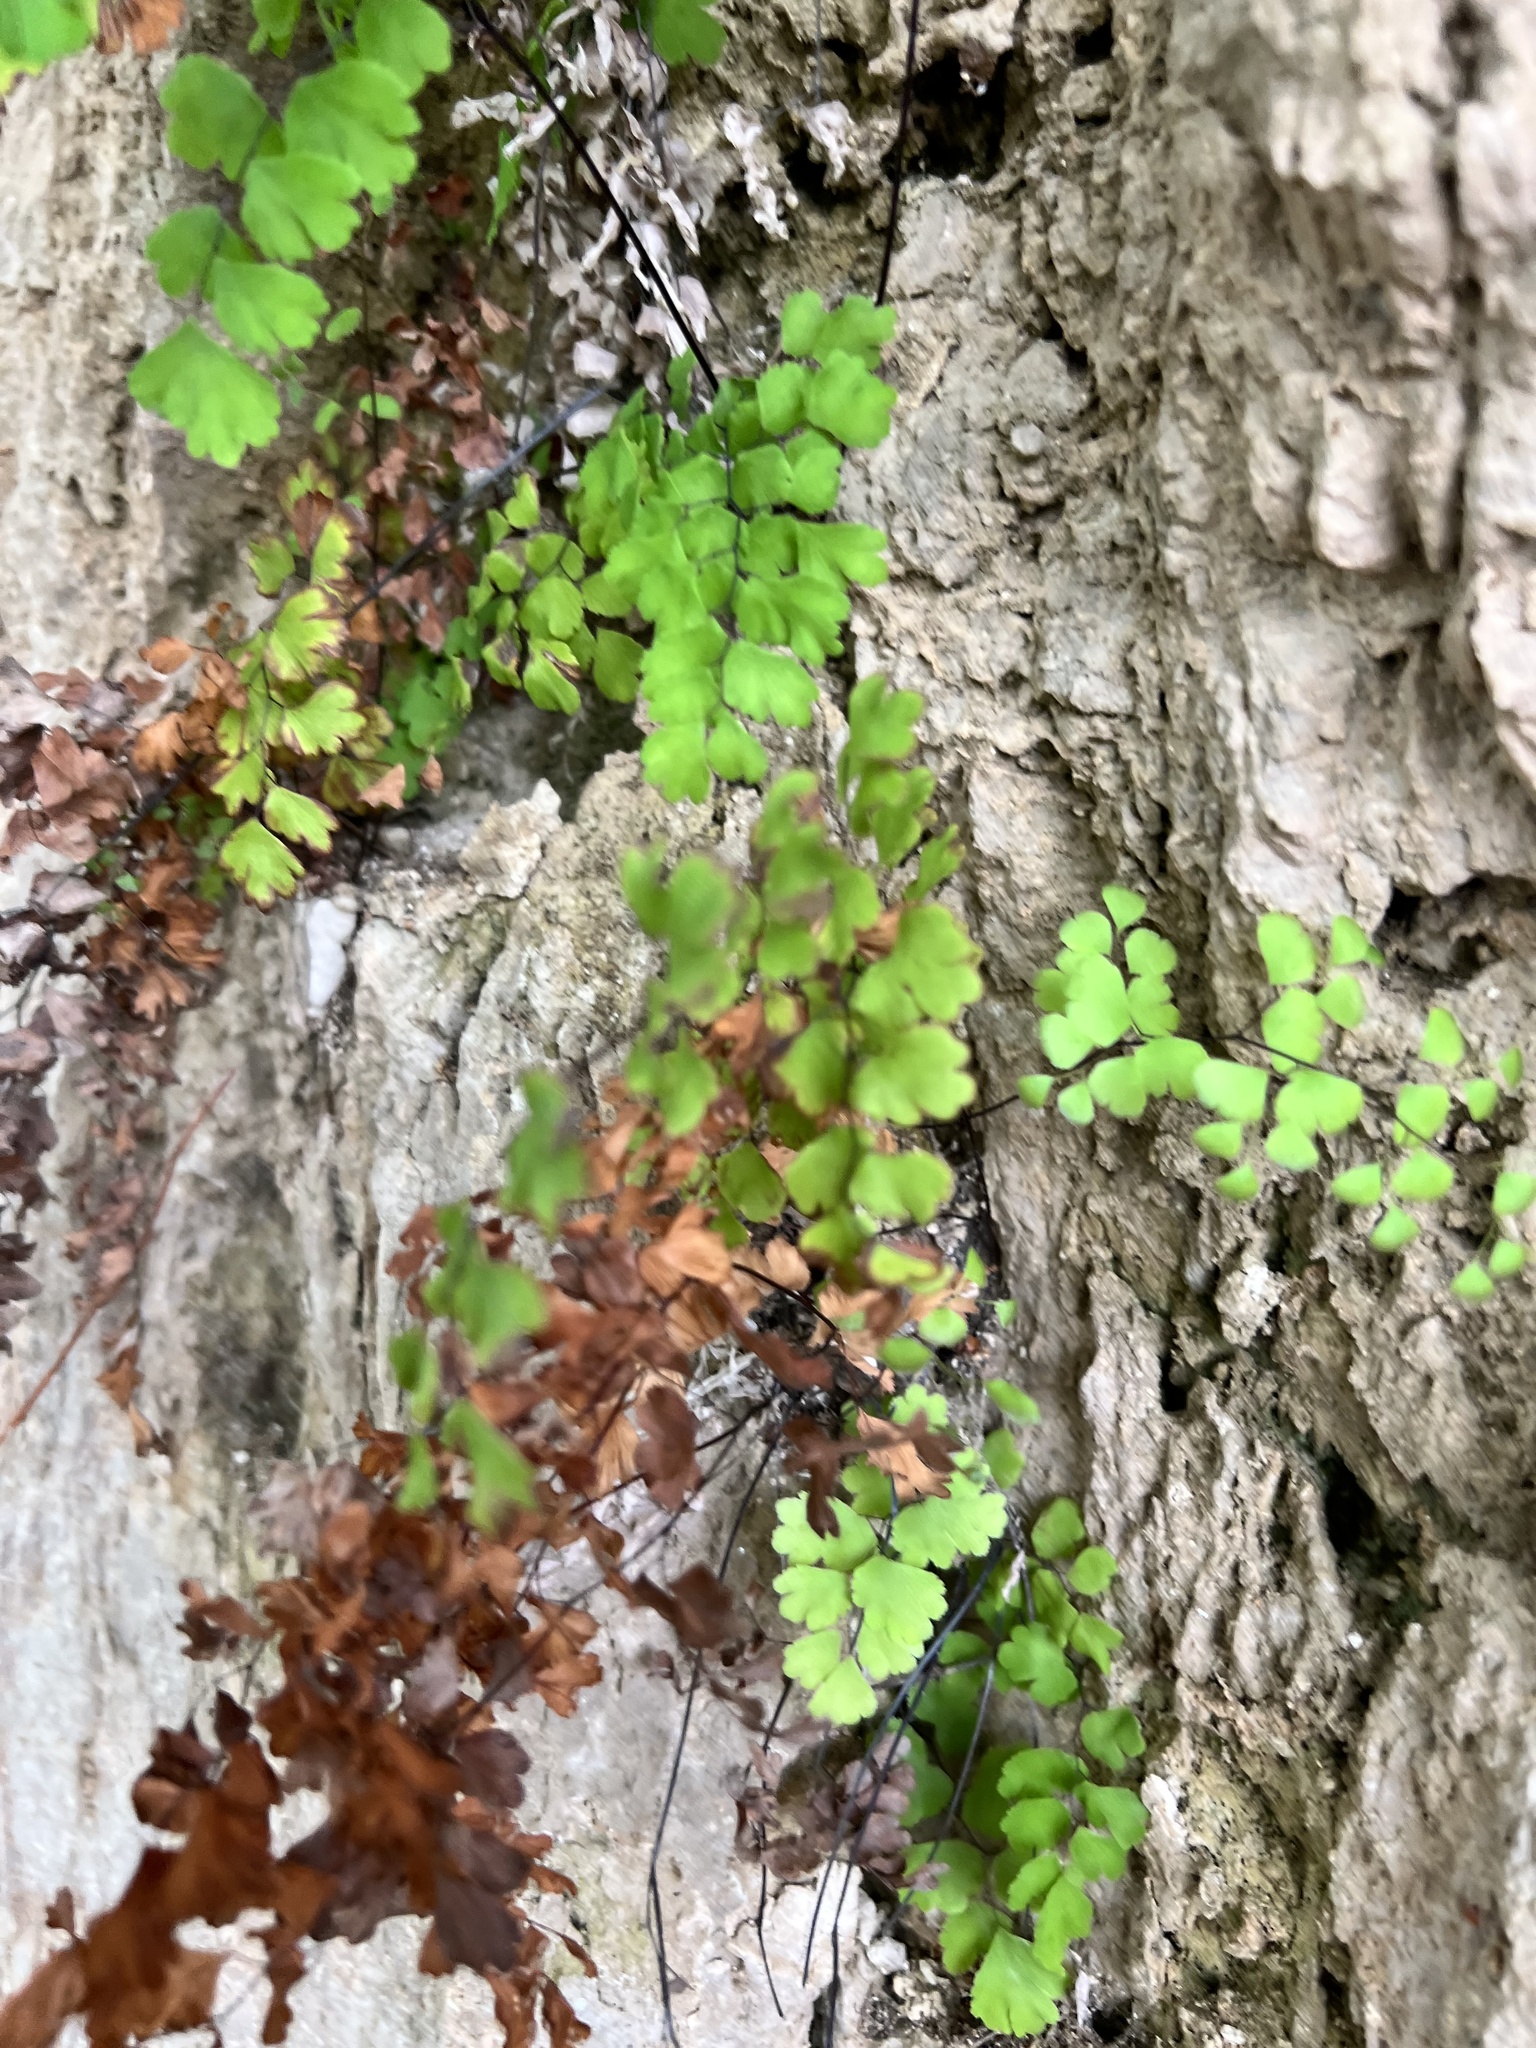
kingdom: Plantae
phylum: Tracheophyta
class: Polypodiopsida
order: Polypodiales
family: Pteridaceae
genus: Adiantum
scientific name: Adiantum capillus-veneris
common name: Maidenhair fern
